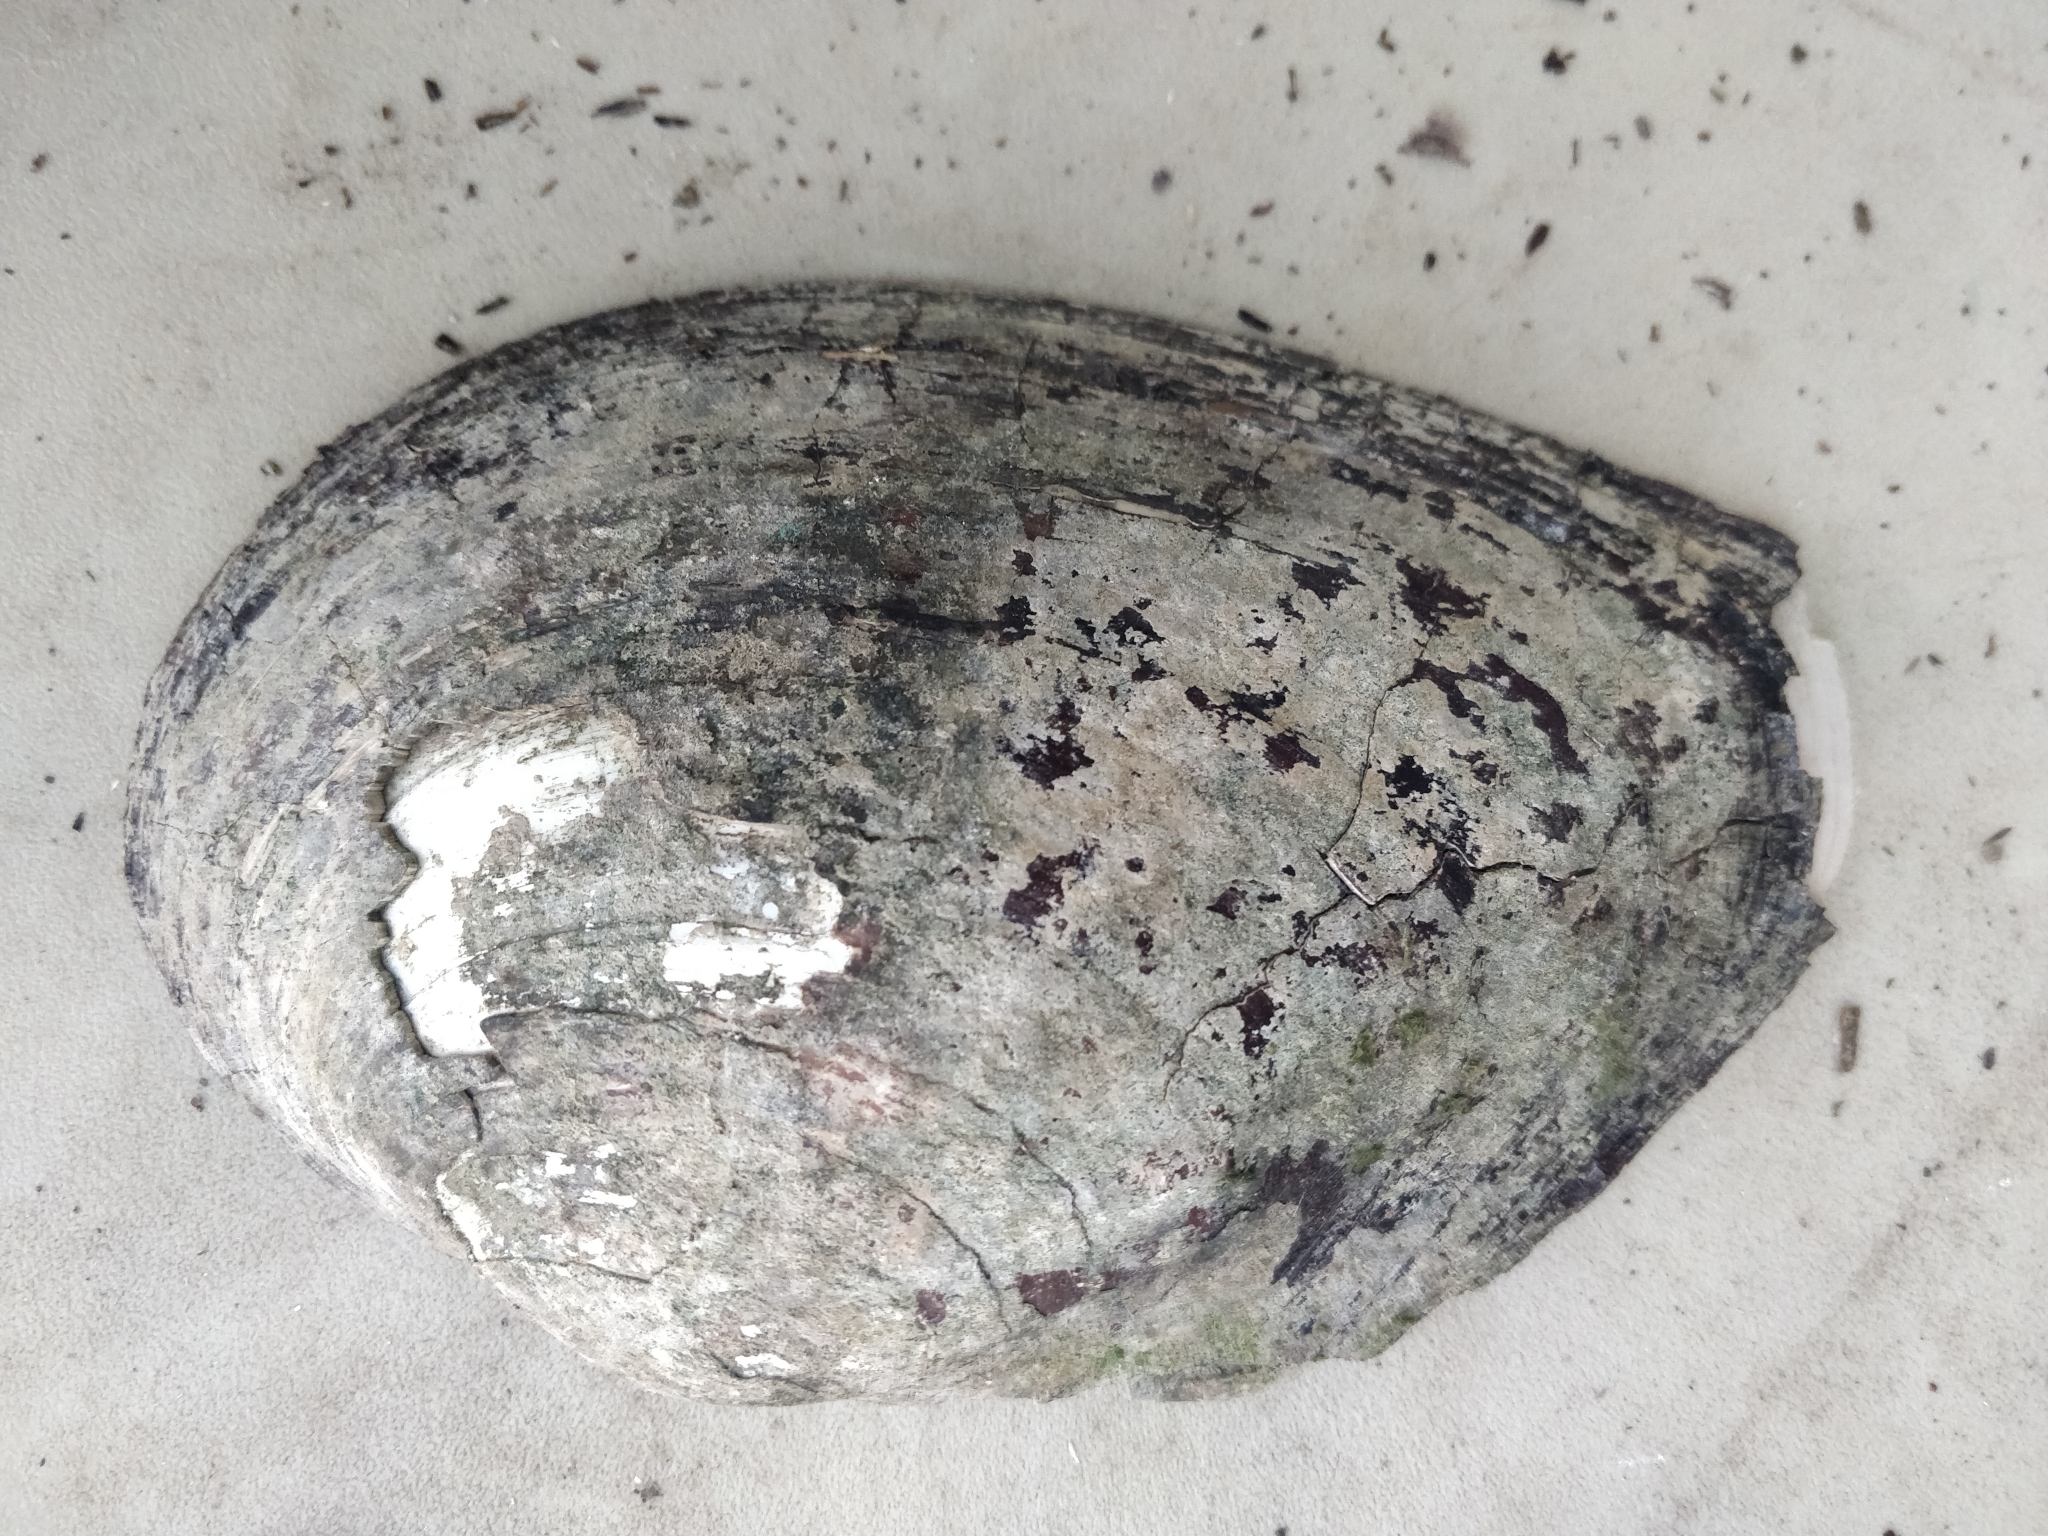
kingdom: Animalia
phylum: Mollusca
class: Bivalvia
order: Unionida
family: Unionidae
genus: Lasmigona
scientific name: Lasmigona complanata
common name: White heelsplitter
